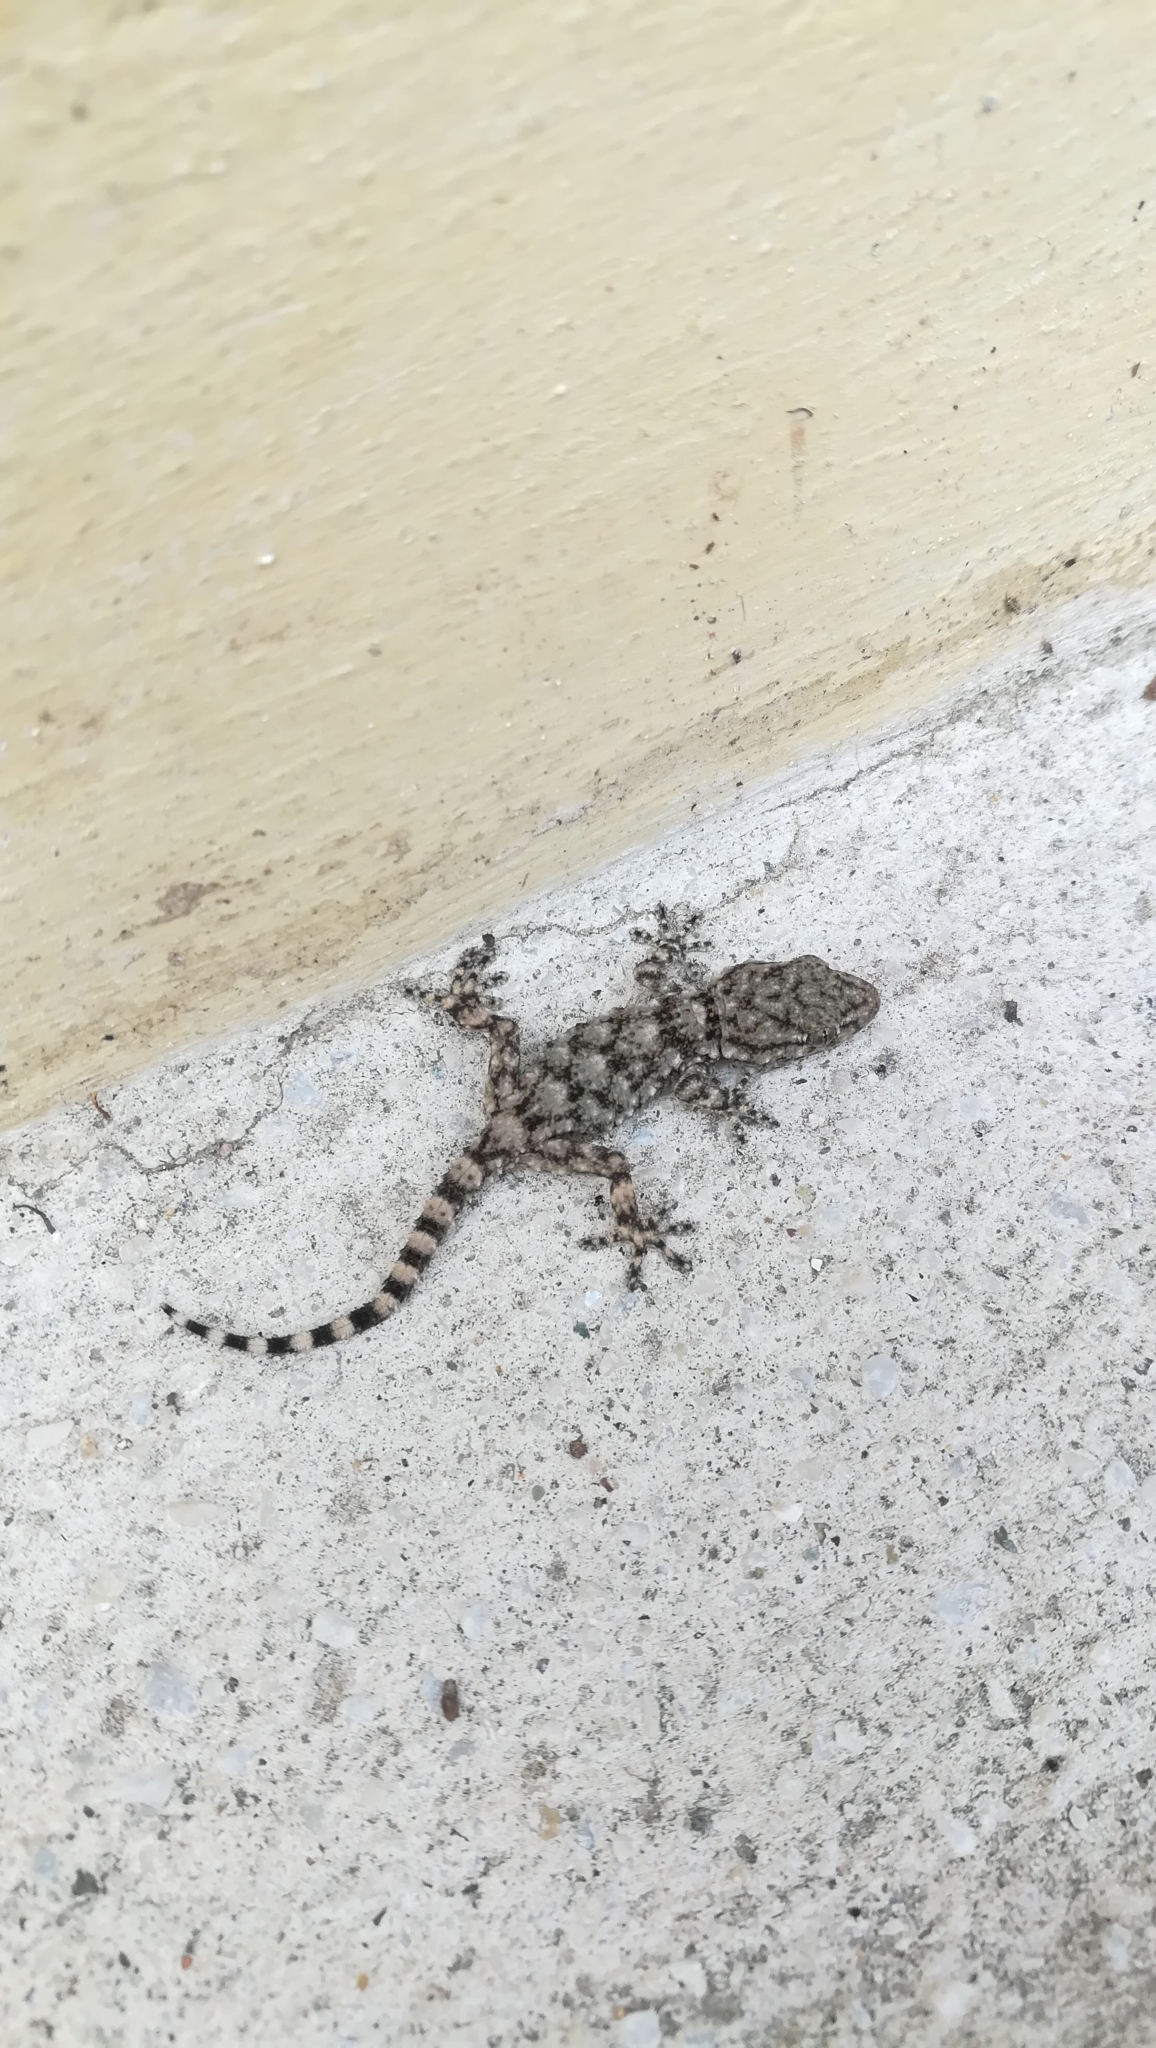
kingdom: Animalia
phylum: Chordata
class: Squamata
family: Phyllodactylidae
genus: Tarentola
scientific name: Tarentola mauritanica
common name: Moorish gecko
